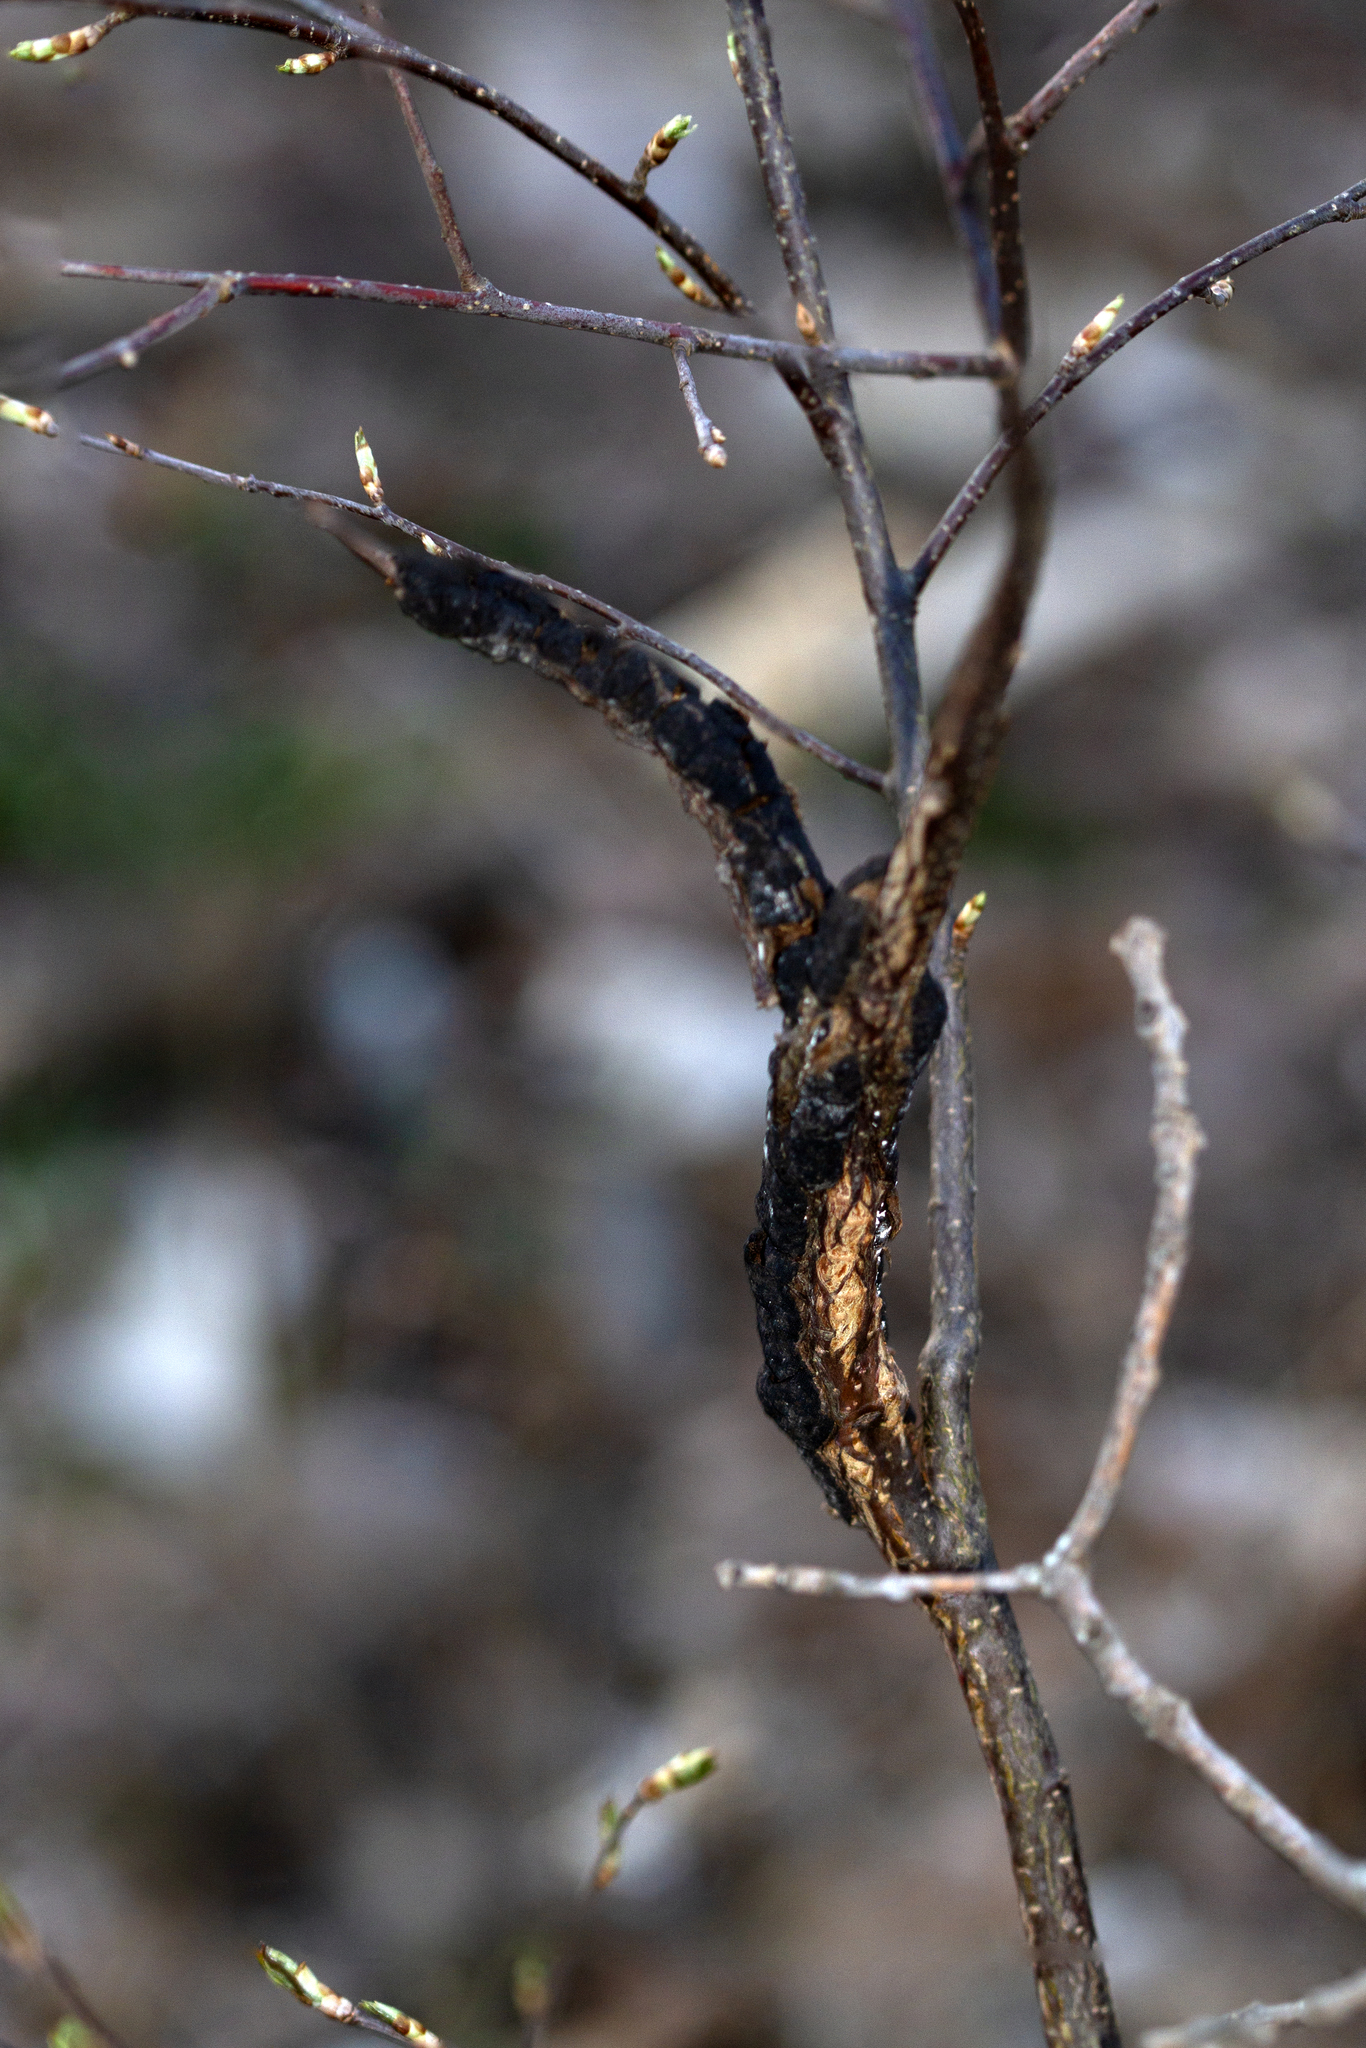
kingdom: Fungi
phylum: Ascomycota
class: Dothideomycetes
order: Venturiales
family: Venturiaceae
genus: Apiosporina
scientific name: Apiosporina morbosa
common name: Black knot
